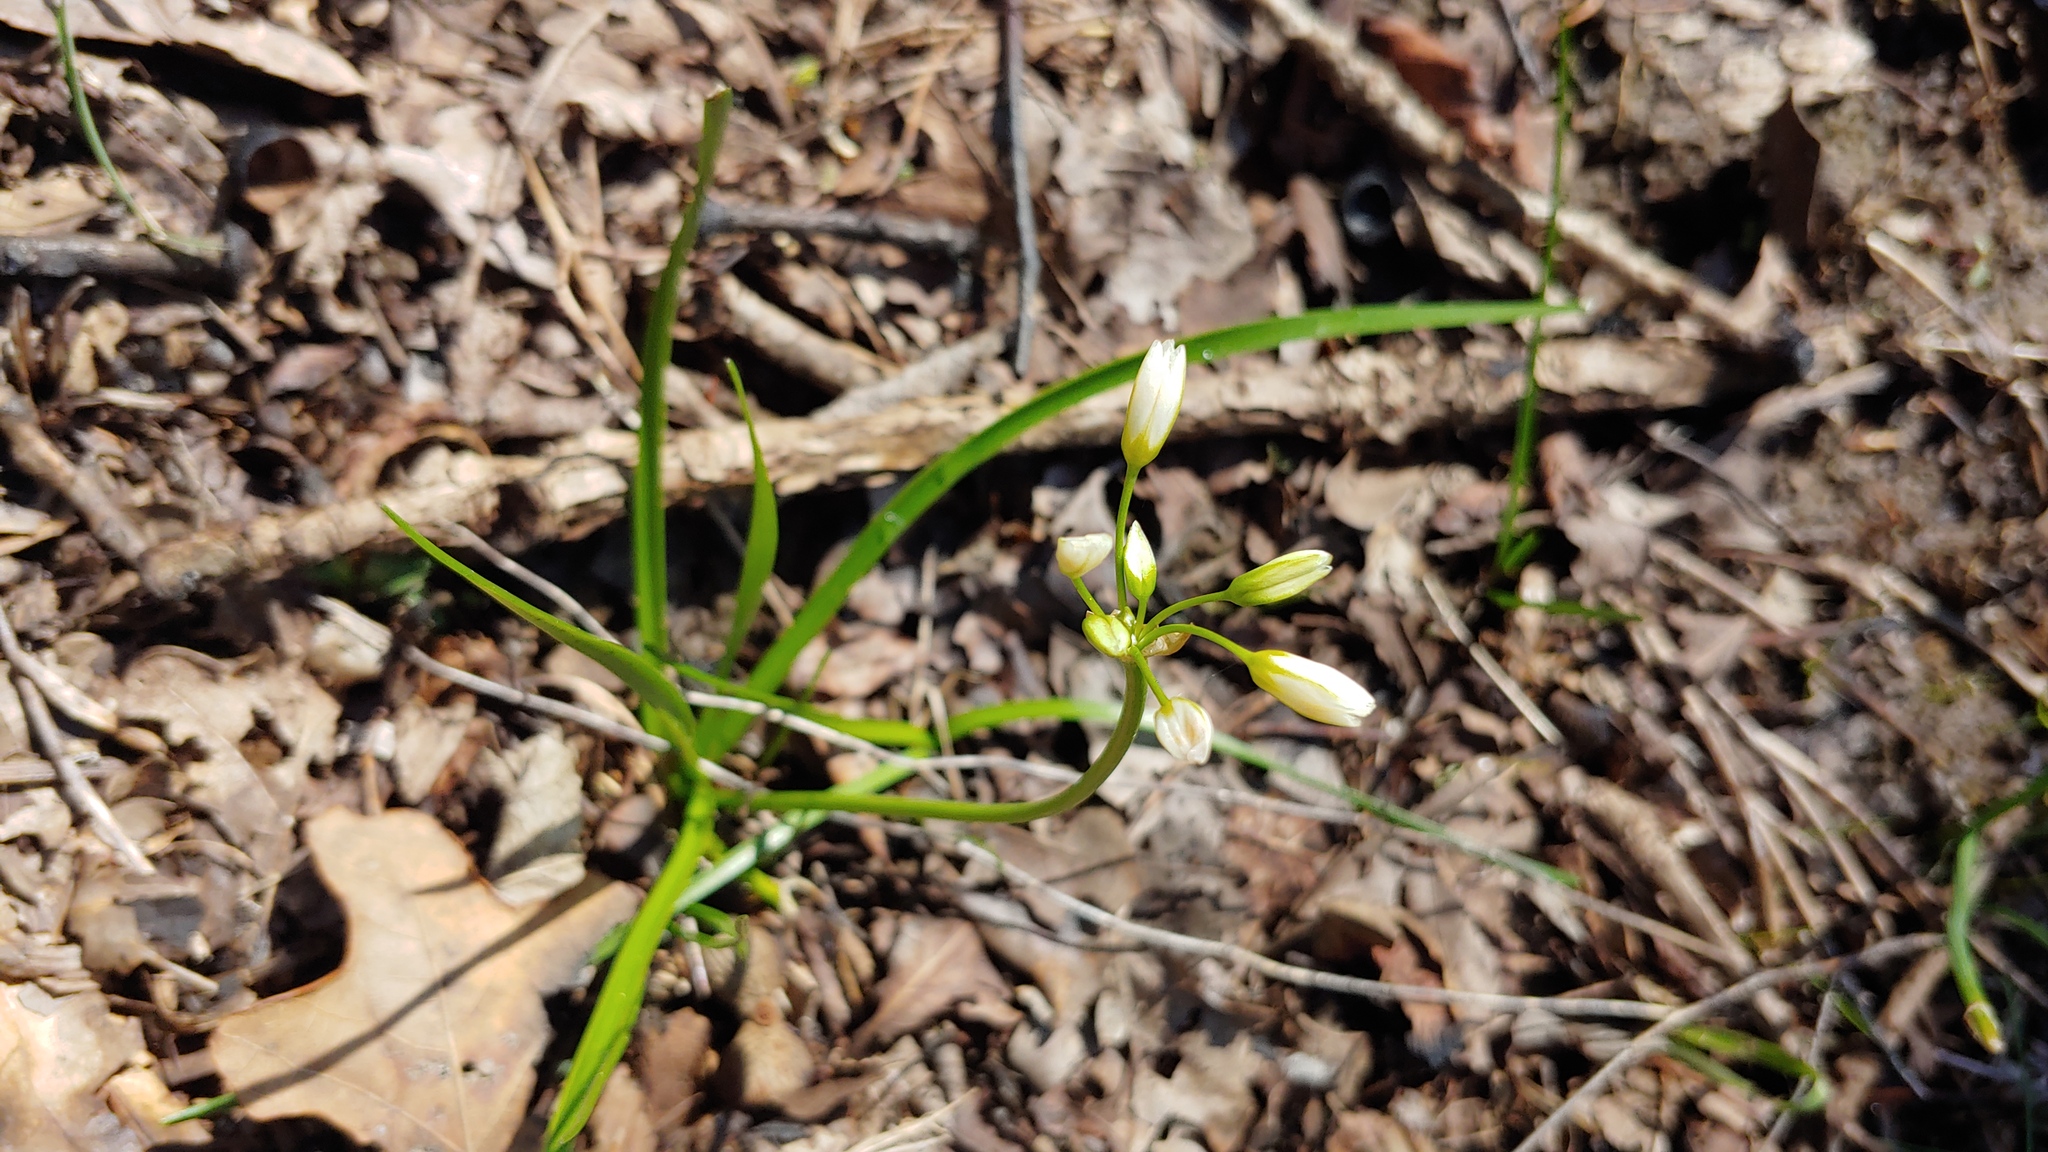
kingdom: Plantae
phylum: Tracheophyta
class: Liliopsida
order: Asparagales
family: Amaryllidaceae
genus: Nothoscordum
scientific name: Nothoscordum bivalve
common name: Crow-poison
